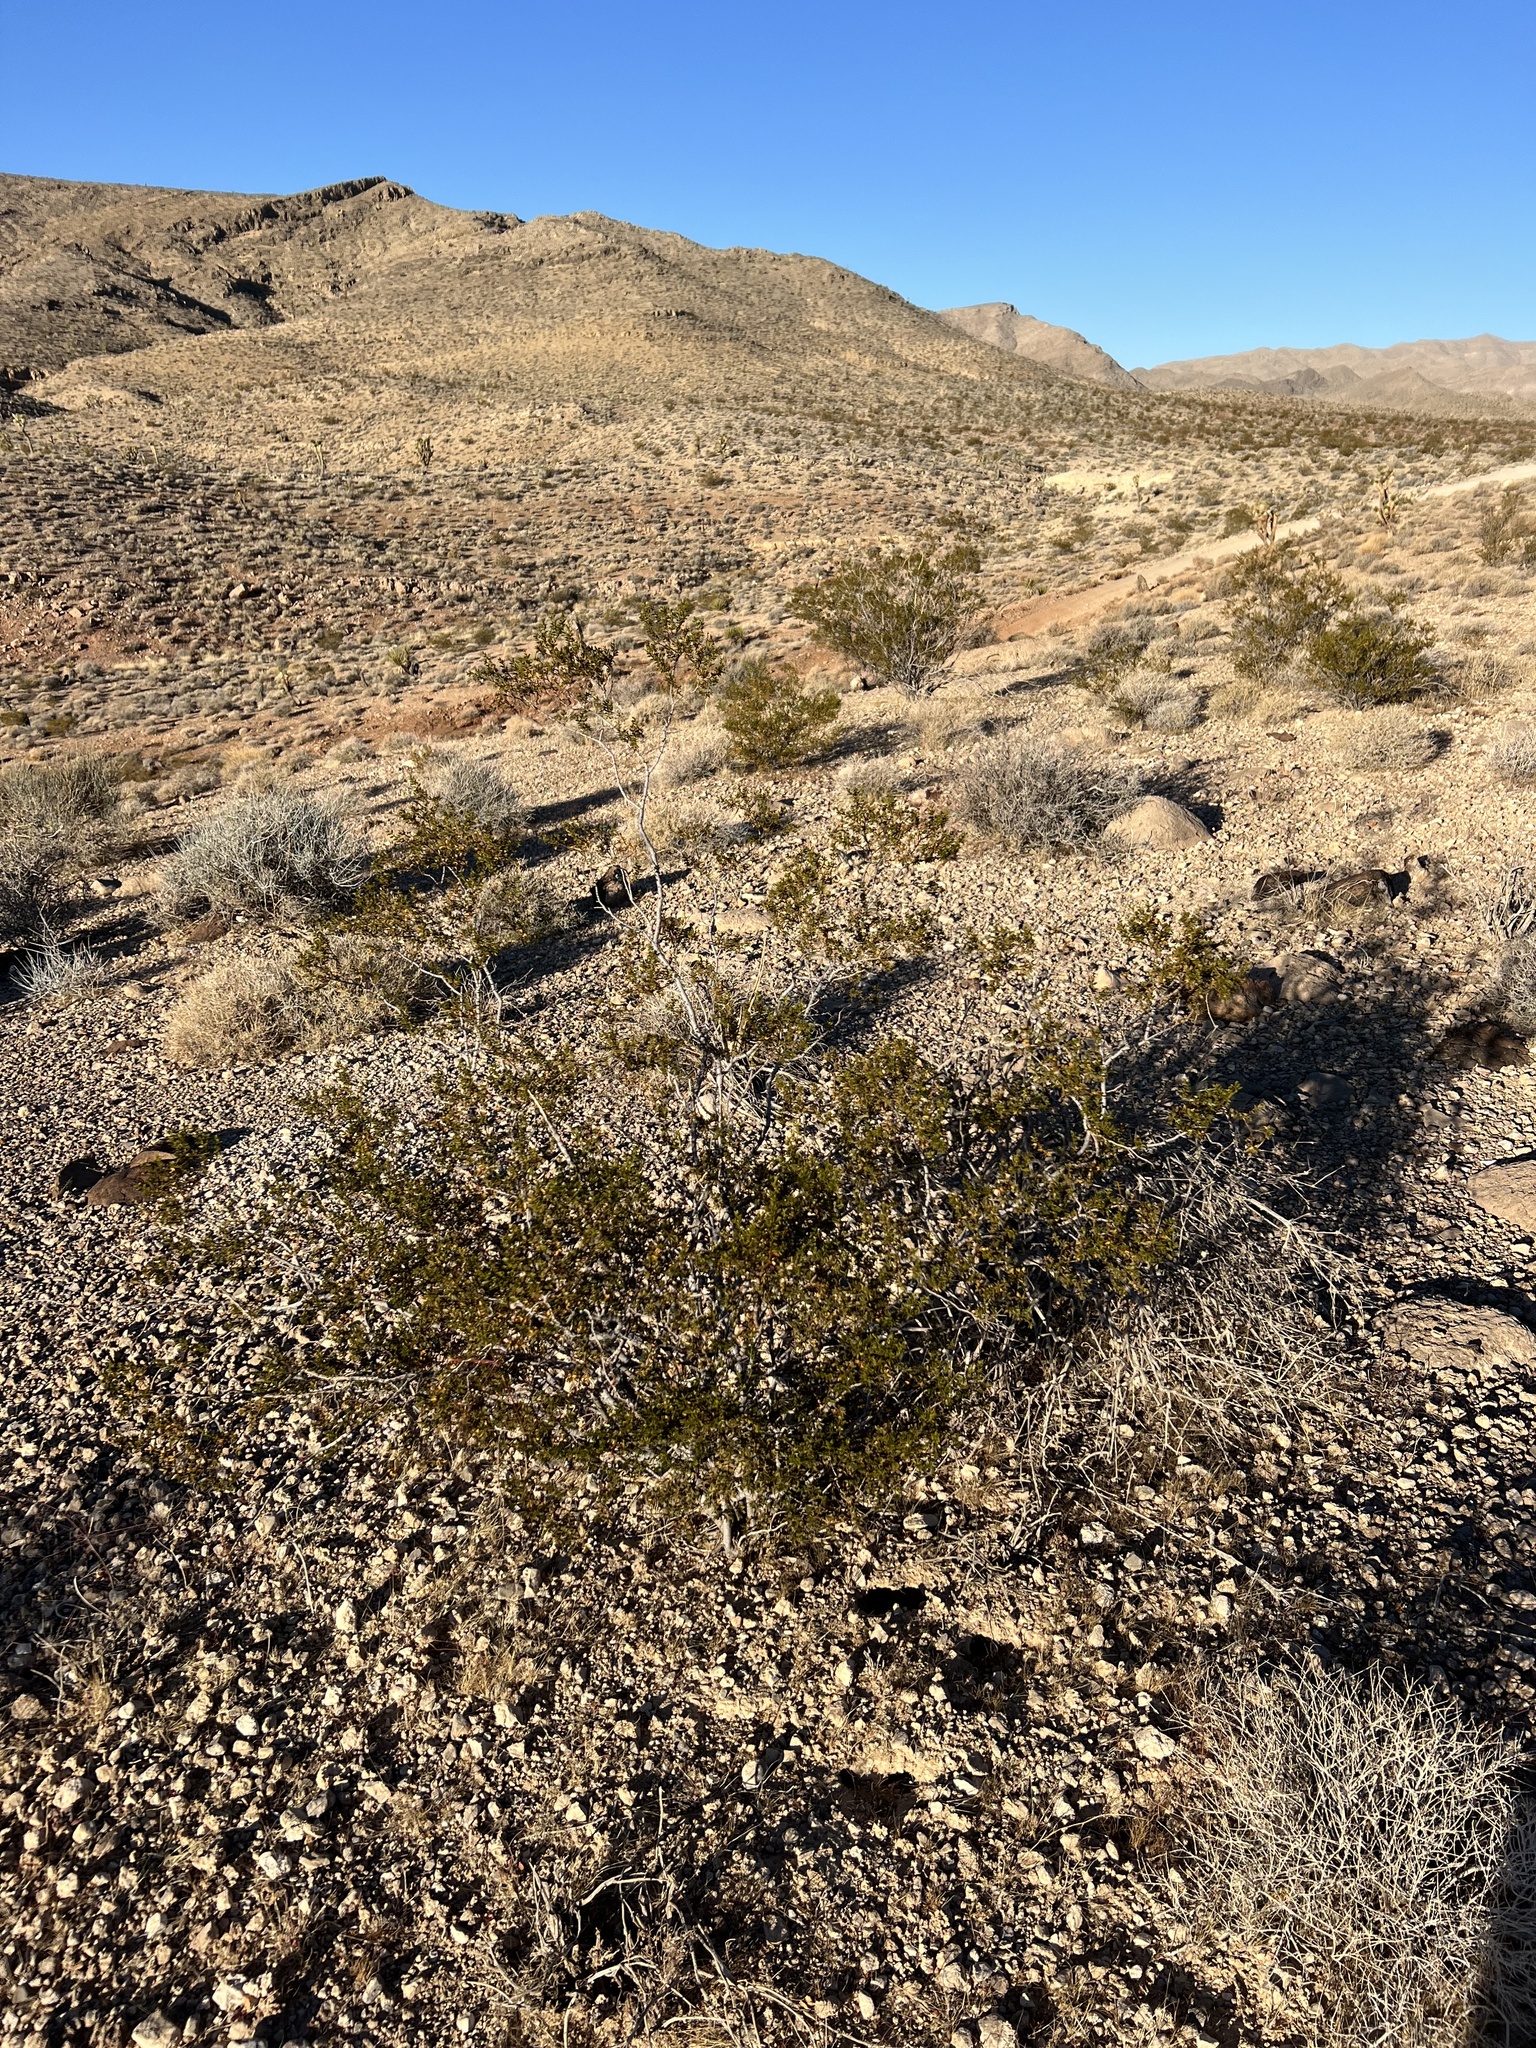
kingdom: Plantae
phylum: Tracheophyta
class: Magnoliopsida
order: Zygophyllales
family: Zygophyllaceae
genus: Larrea
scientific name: Larrea tridentata
